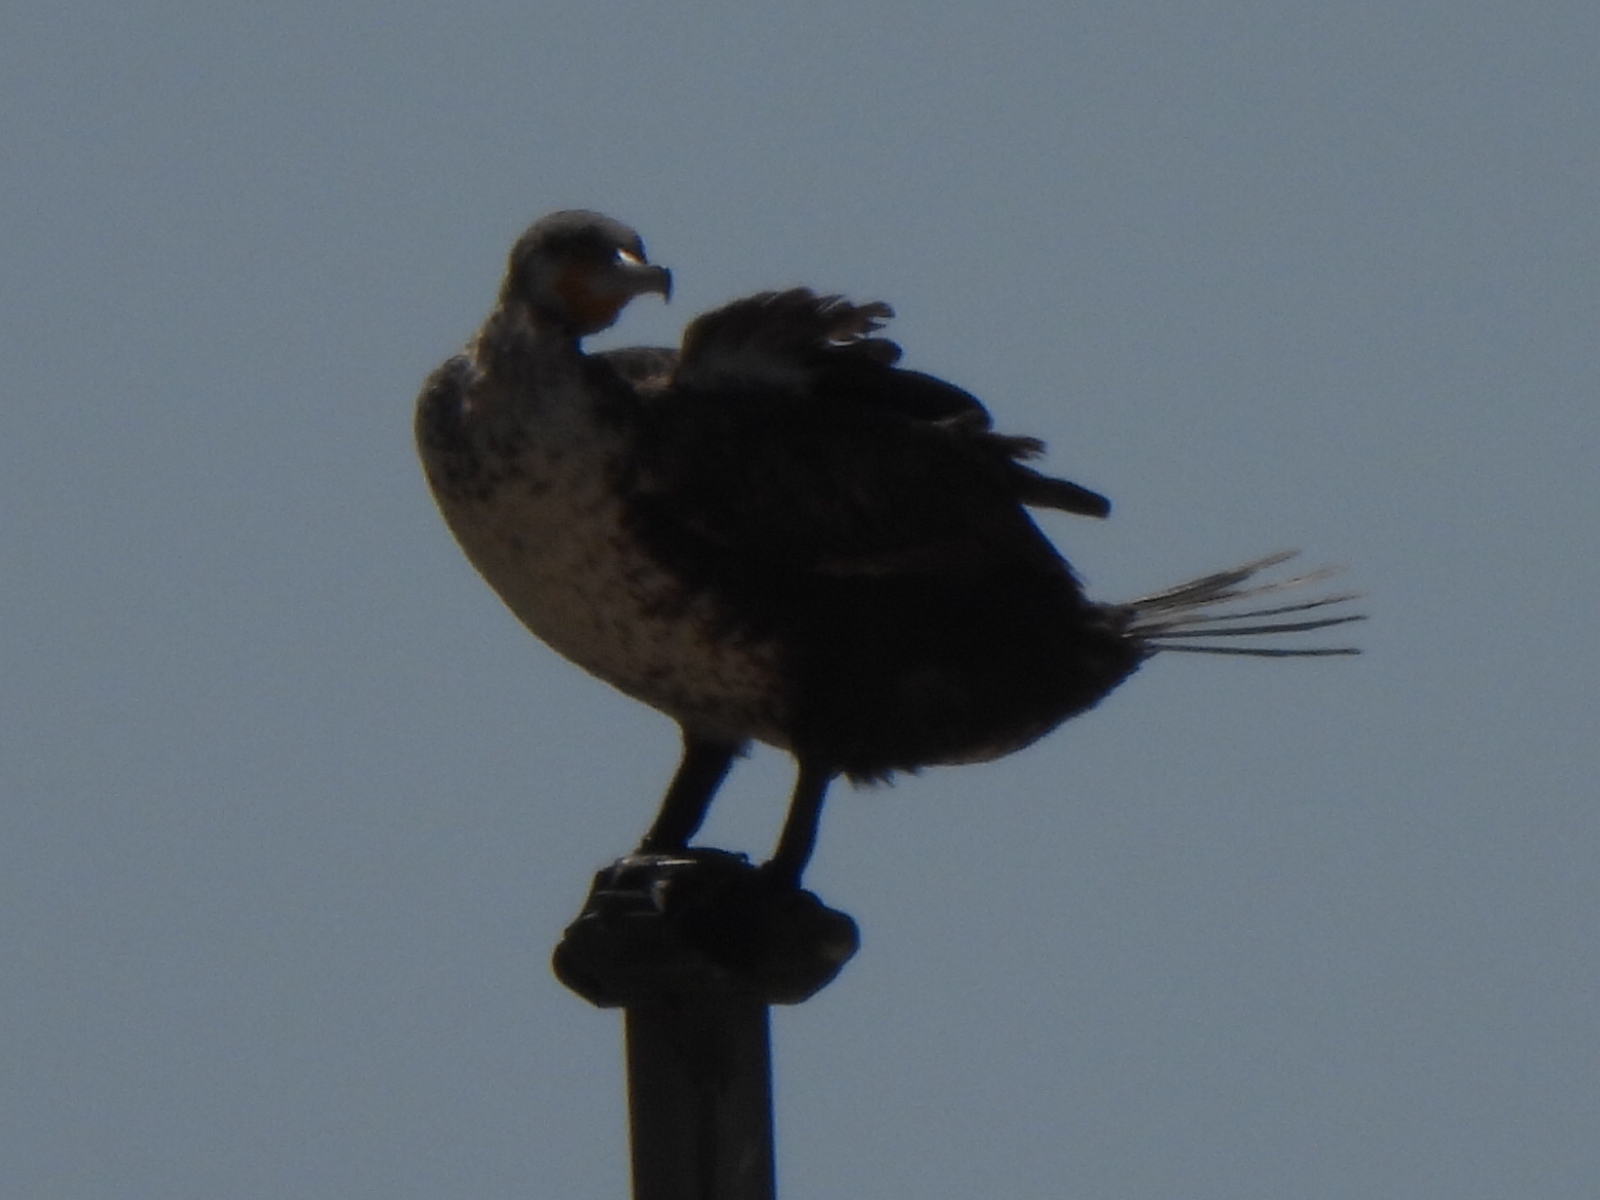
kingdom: Animalia
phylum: Chordata
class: Aves
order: Suliformes
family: Phalacrocoracidae
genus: Phalacrocorax
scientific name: Phalacrocorax carbo
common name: Great cormorant
